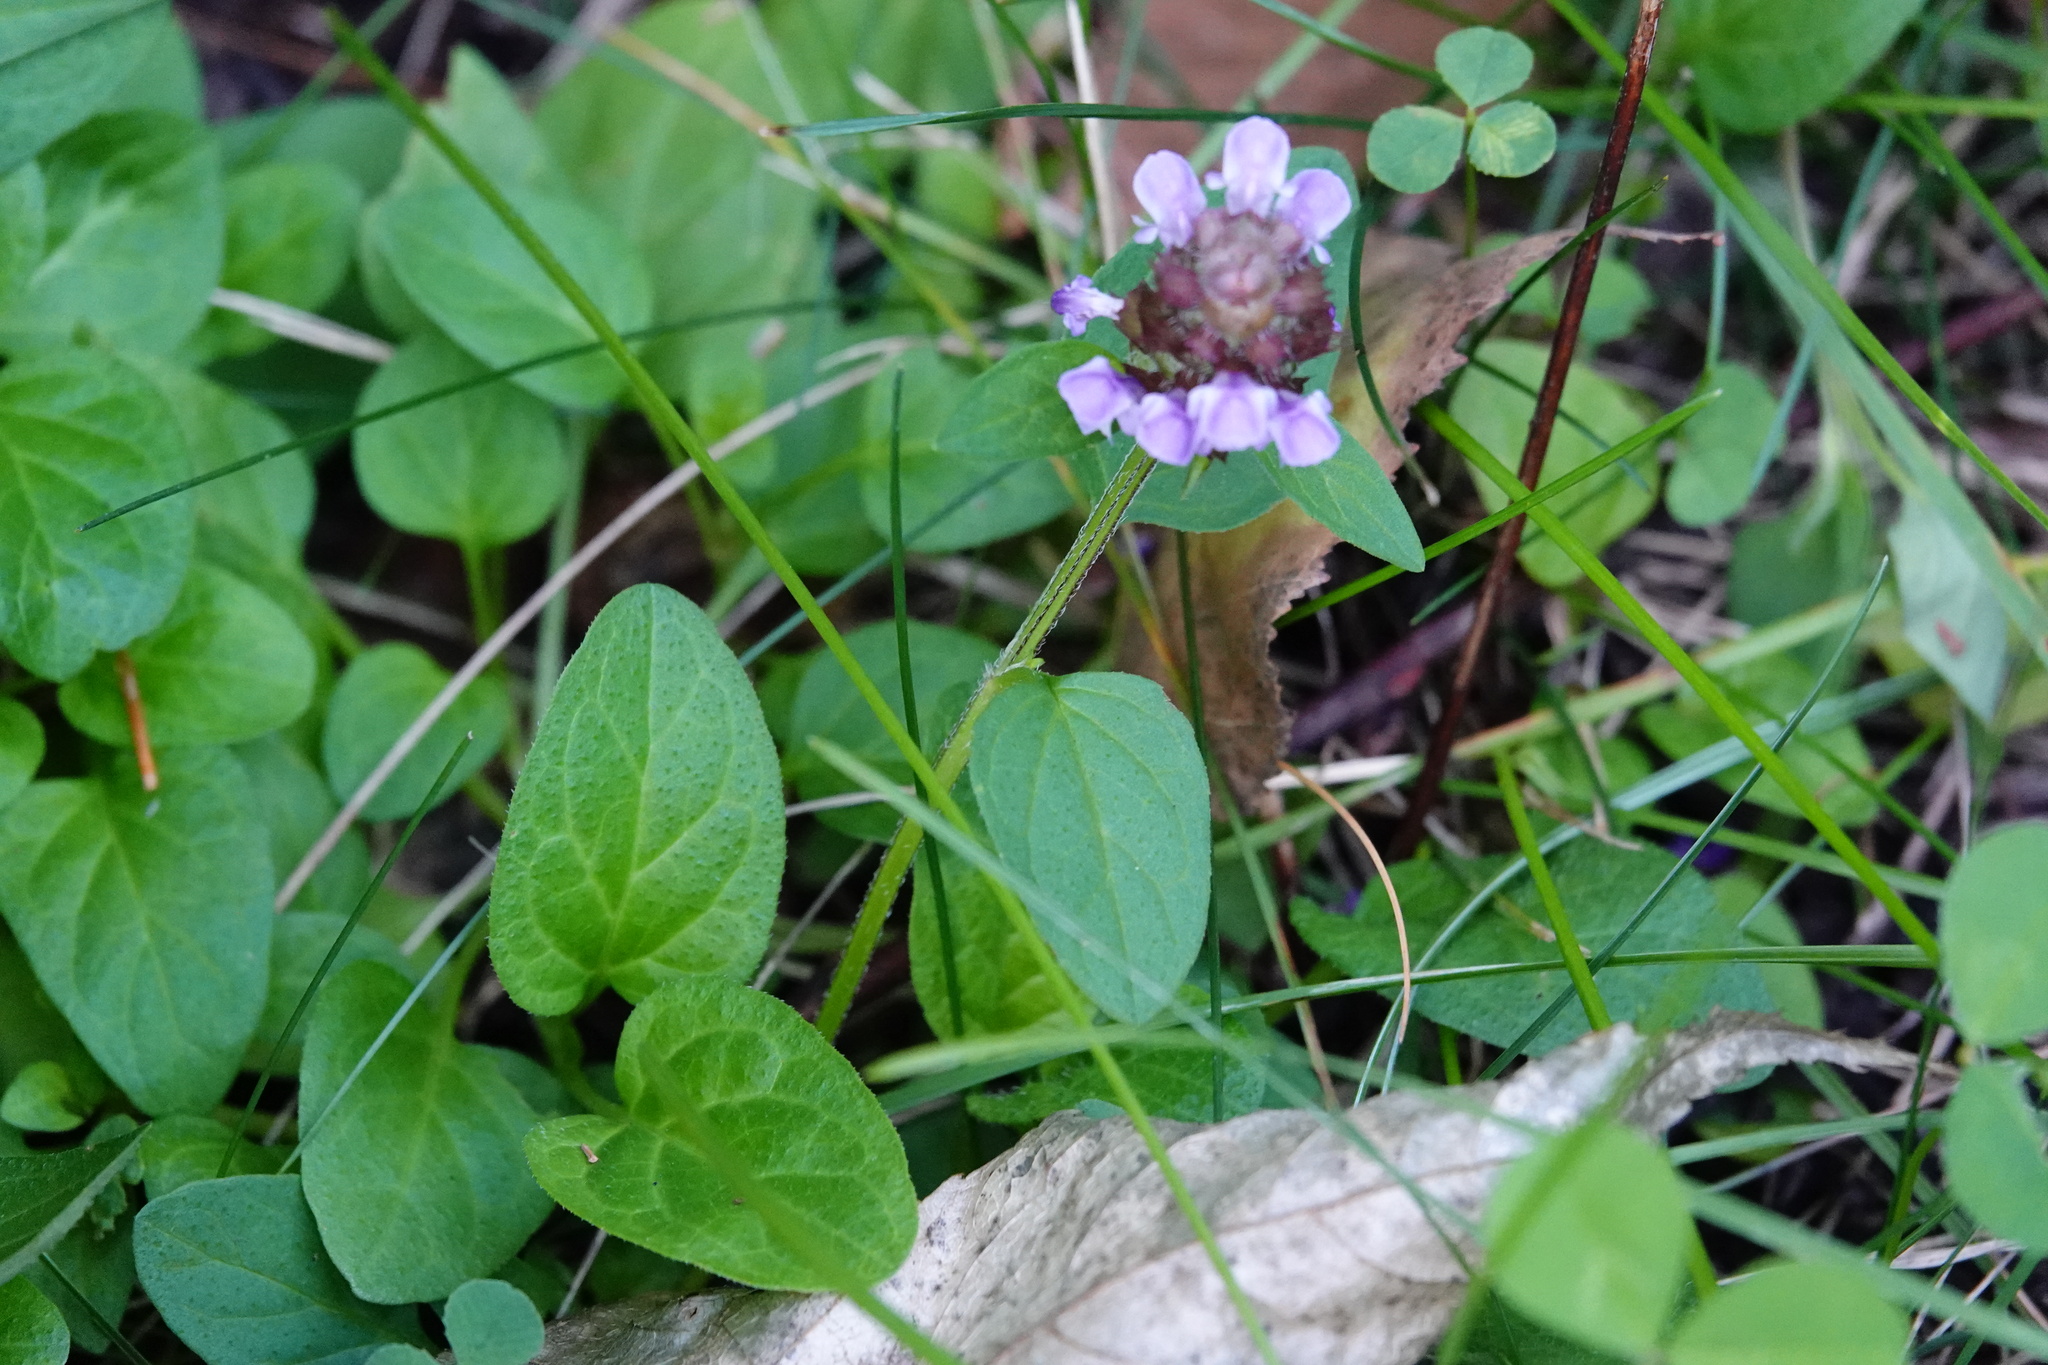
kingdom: Plantae
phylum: Tracheophyta
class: Magnoliopsida
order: Lamiales
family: Lamiaceae
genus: Prunella
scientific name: Prunella vulgaris
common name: Heal-all
